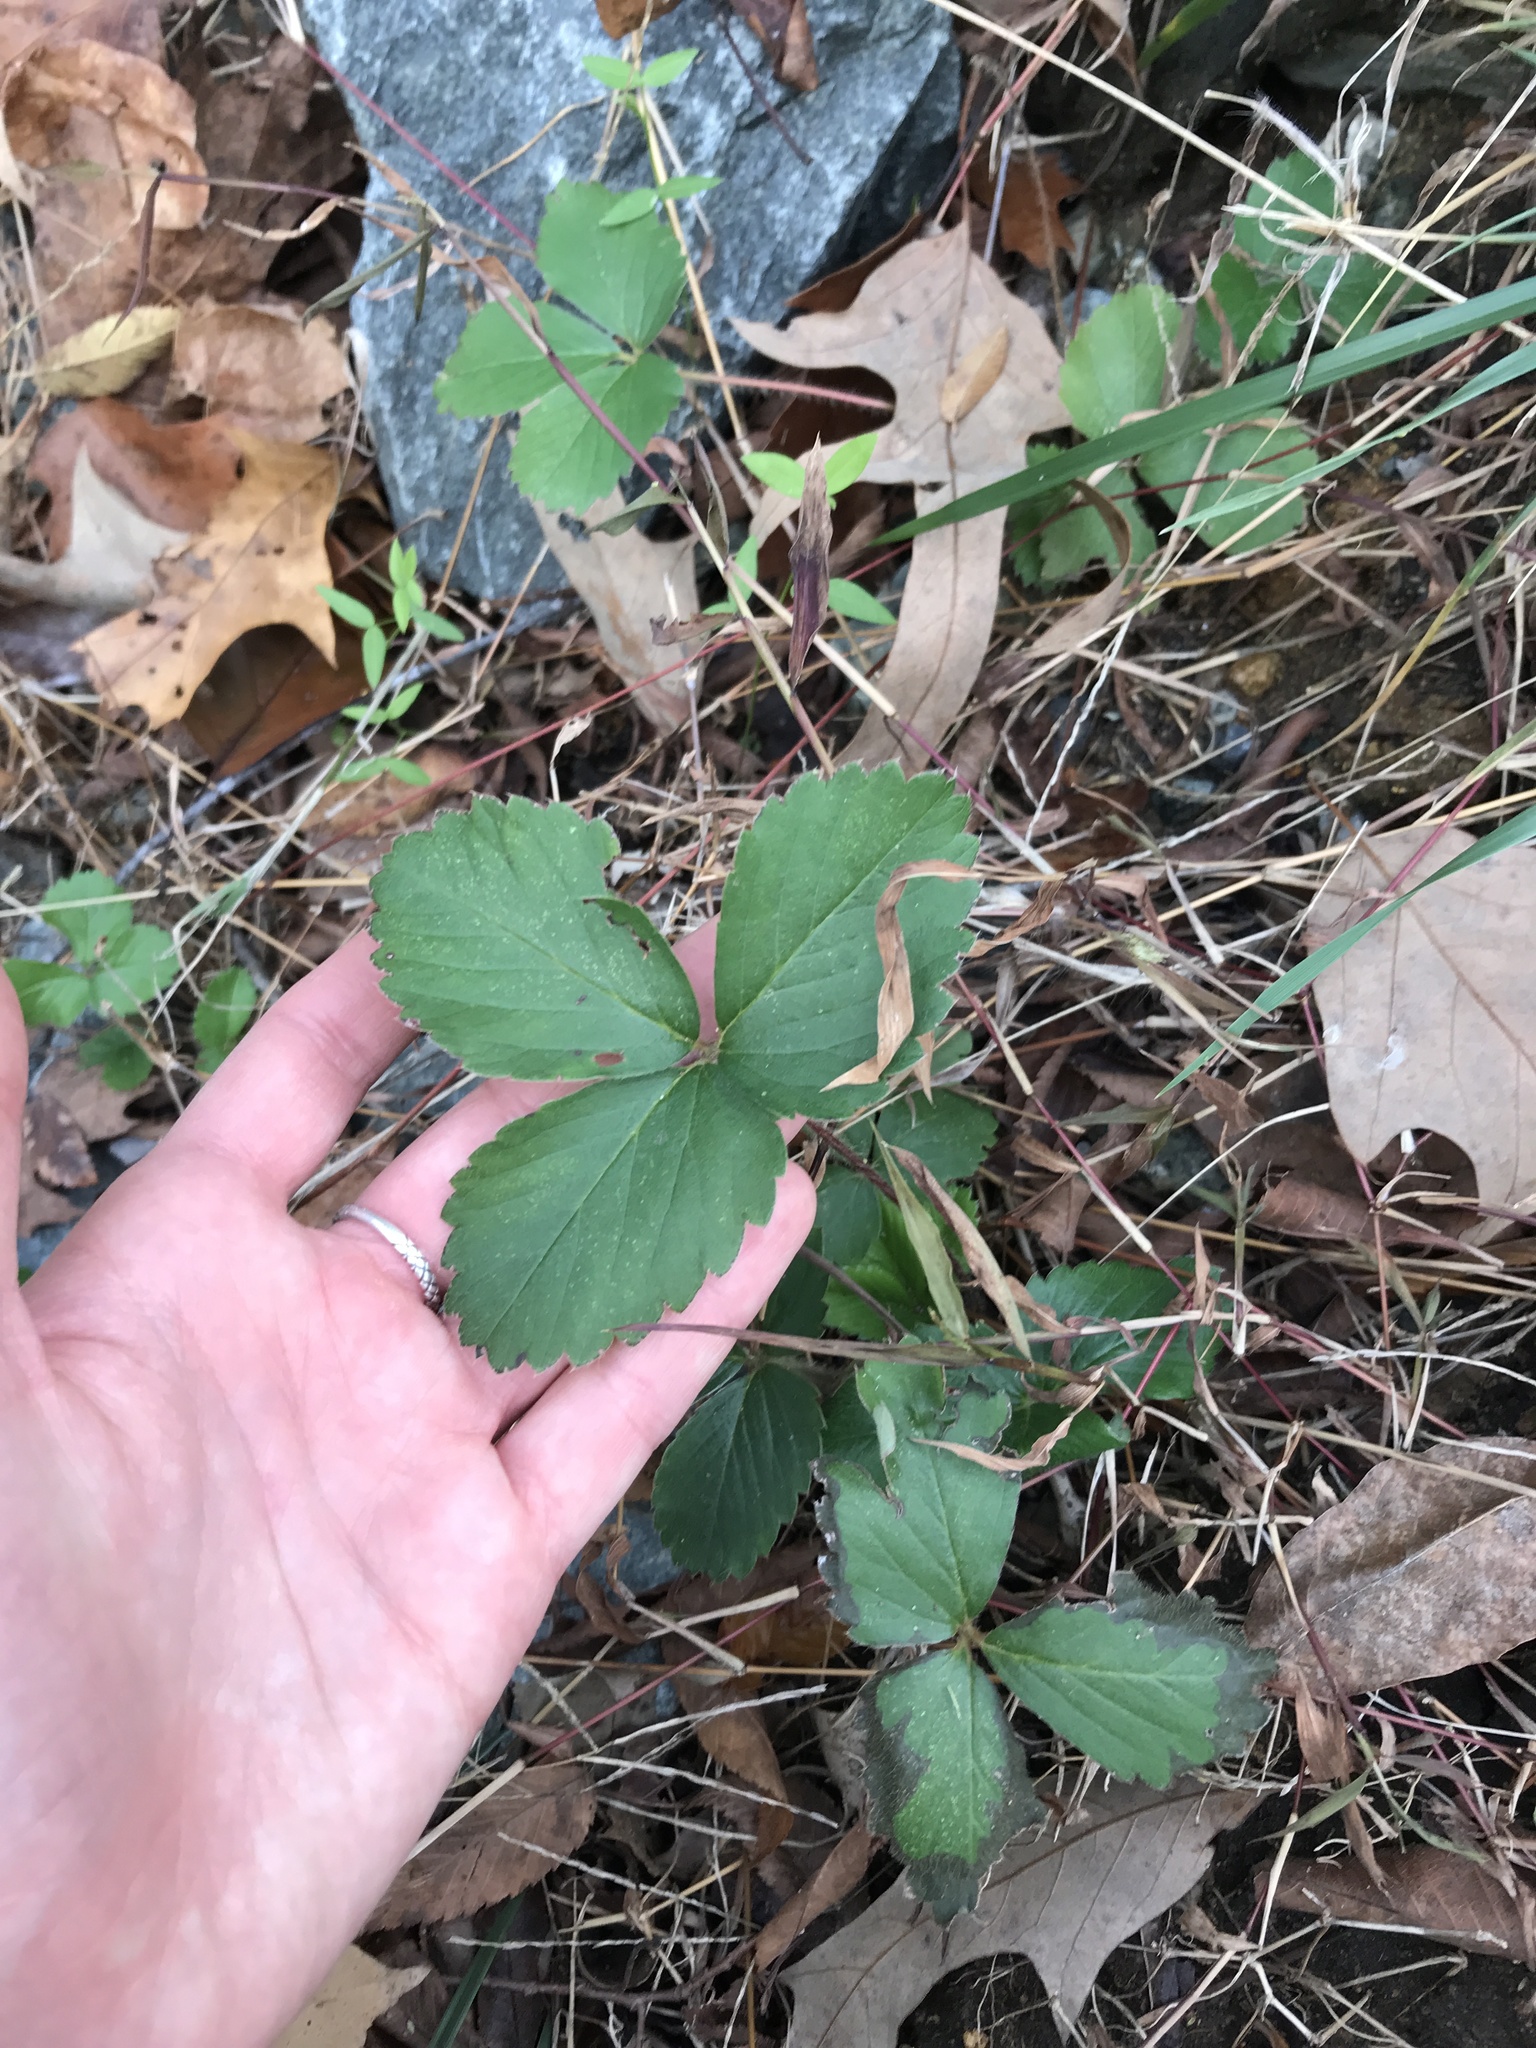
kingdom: Plantae
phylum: Tracheophyta
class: Magnoliopsida
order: Rosales
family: Rosaceae
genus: Potentilla
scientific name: Potentilla indica
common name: Yellow-flowered strawberry
